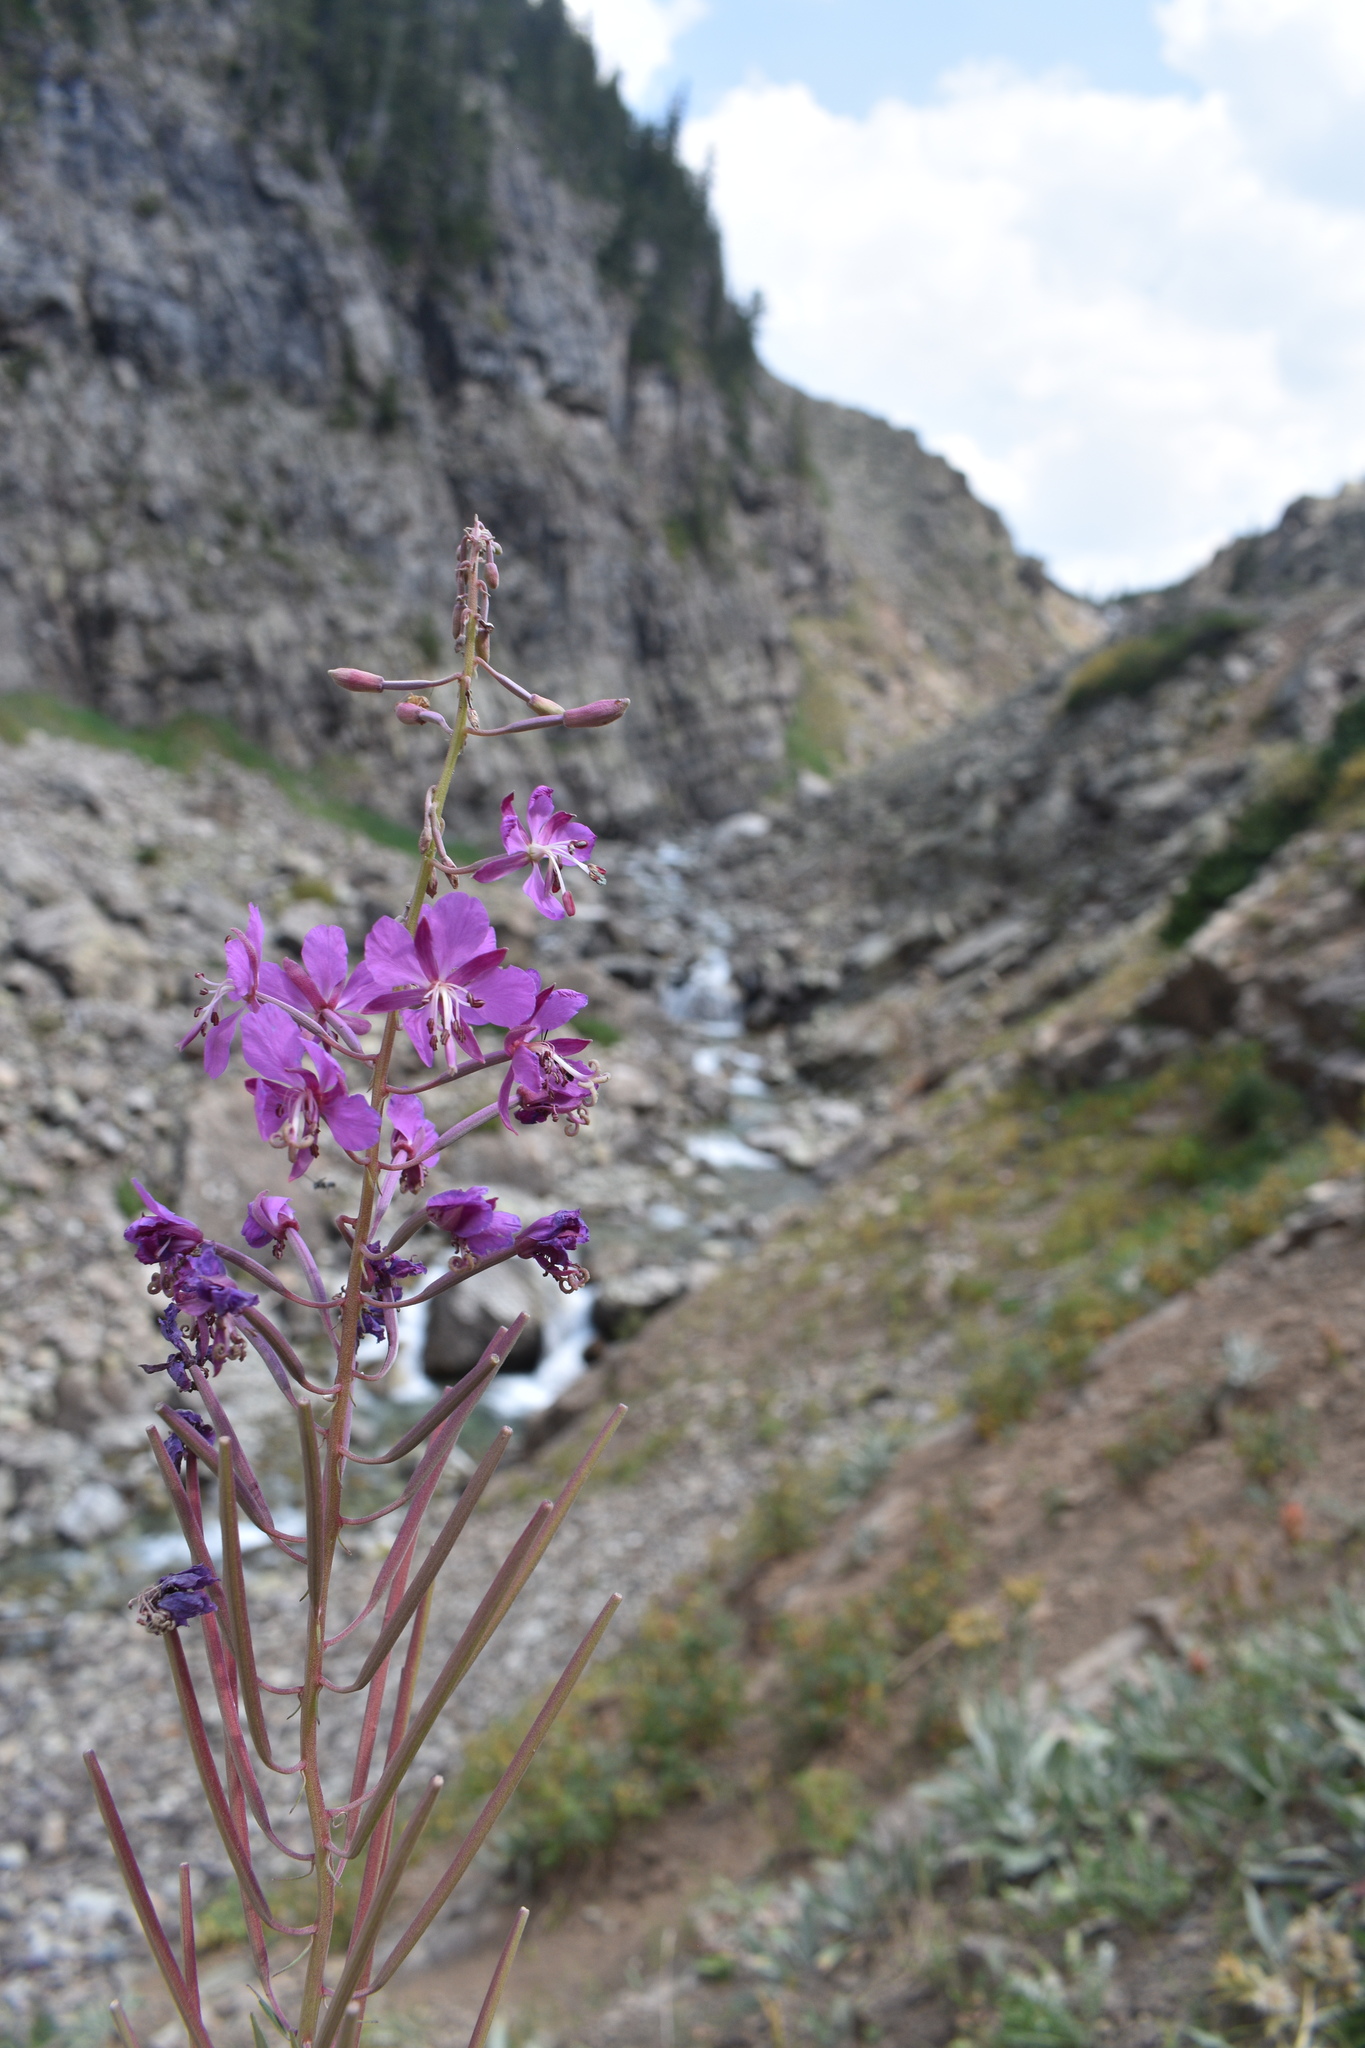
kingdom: Plantae
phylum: Tracheophyta
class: Magnoliopsida
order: Myrtales
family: Onagraceae
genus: Chamaenerion
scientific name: Chamaenerion angustifolium
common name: Fireweed
